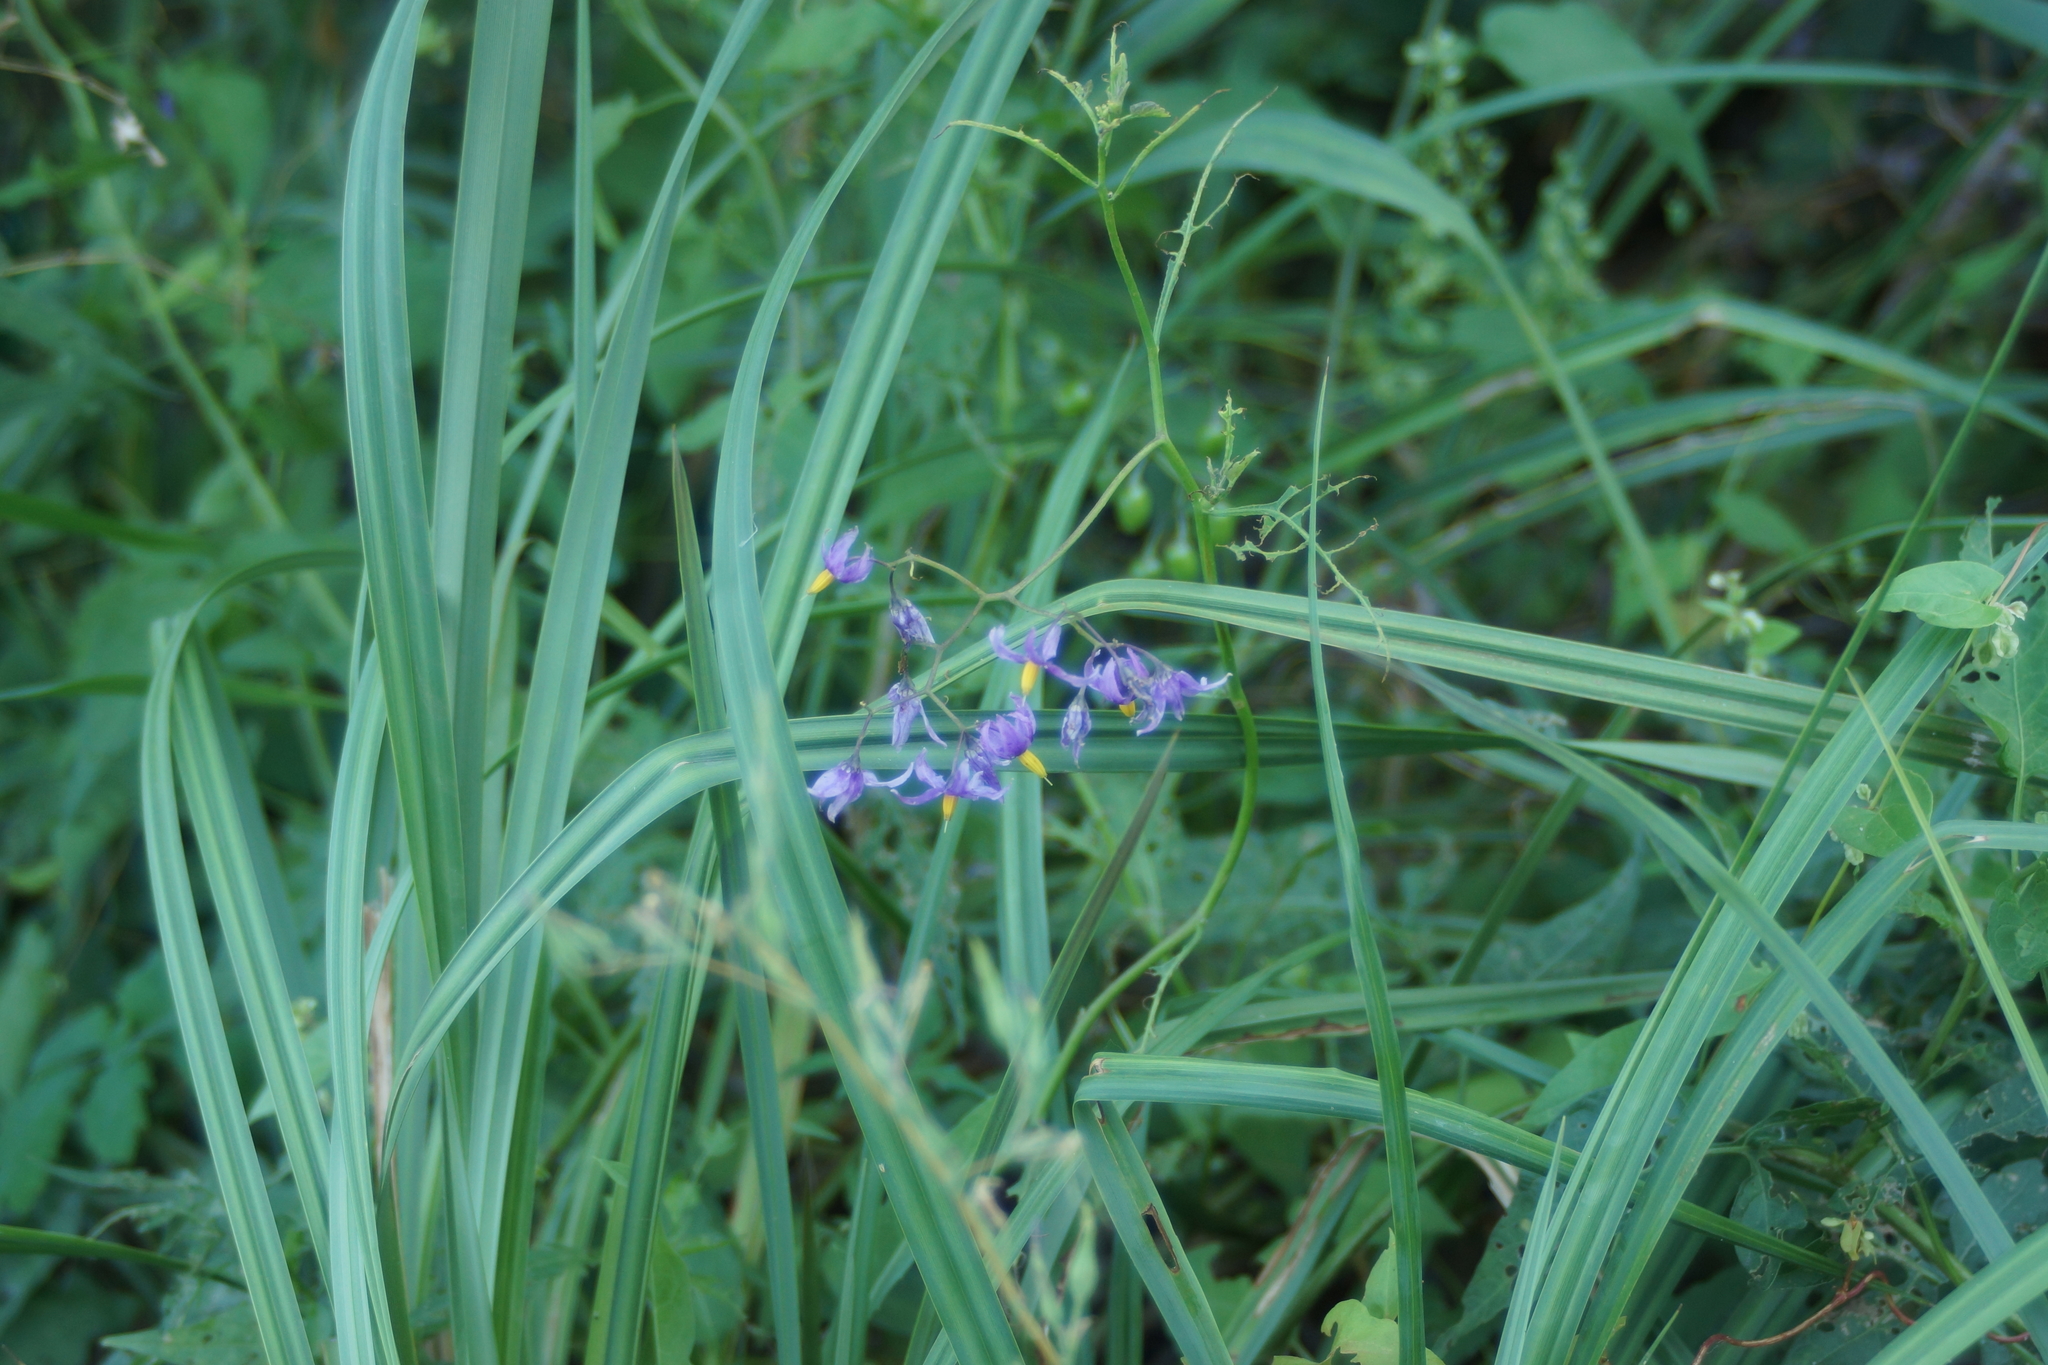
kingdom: Plantae
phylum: Tracheophyta
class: Magnoliopsida
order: Solanales
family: Solanaceae
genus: Solanum
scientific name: Solanum dulcamara
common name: Climbing nightshade
